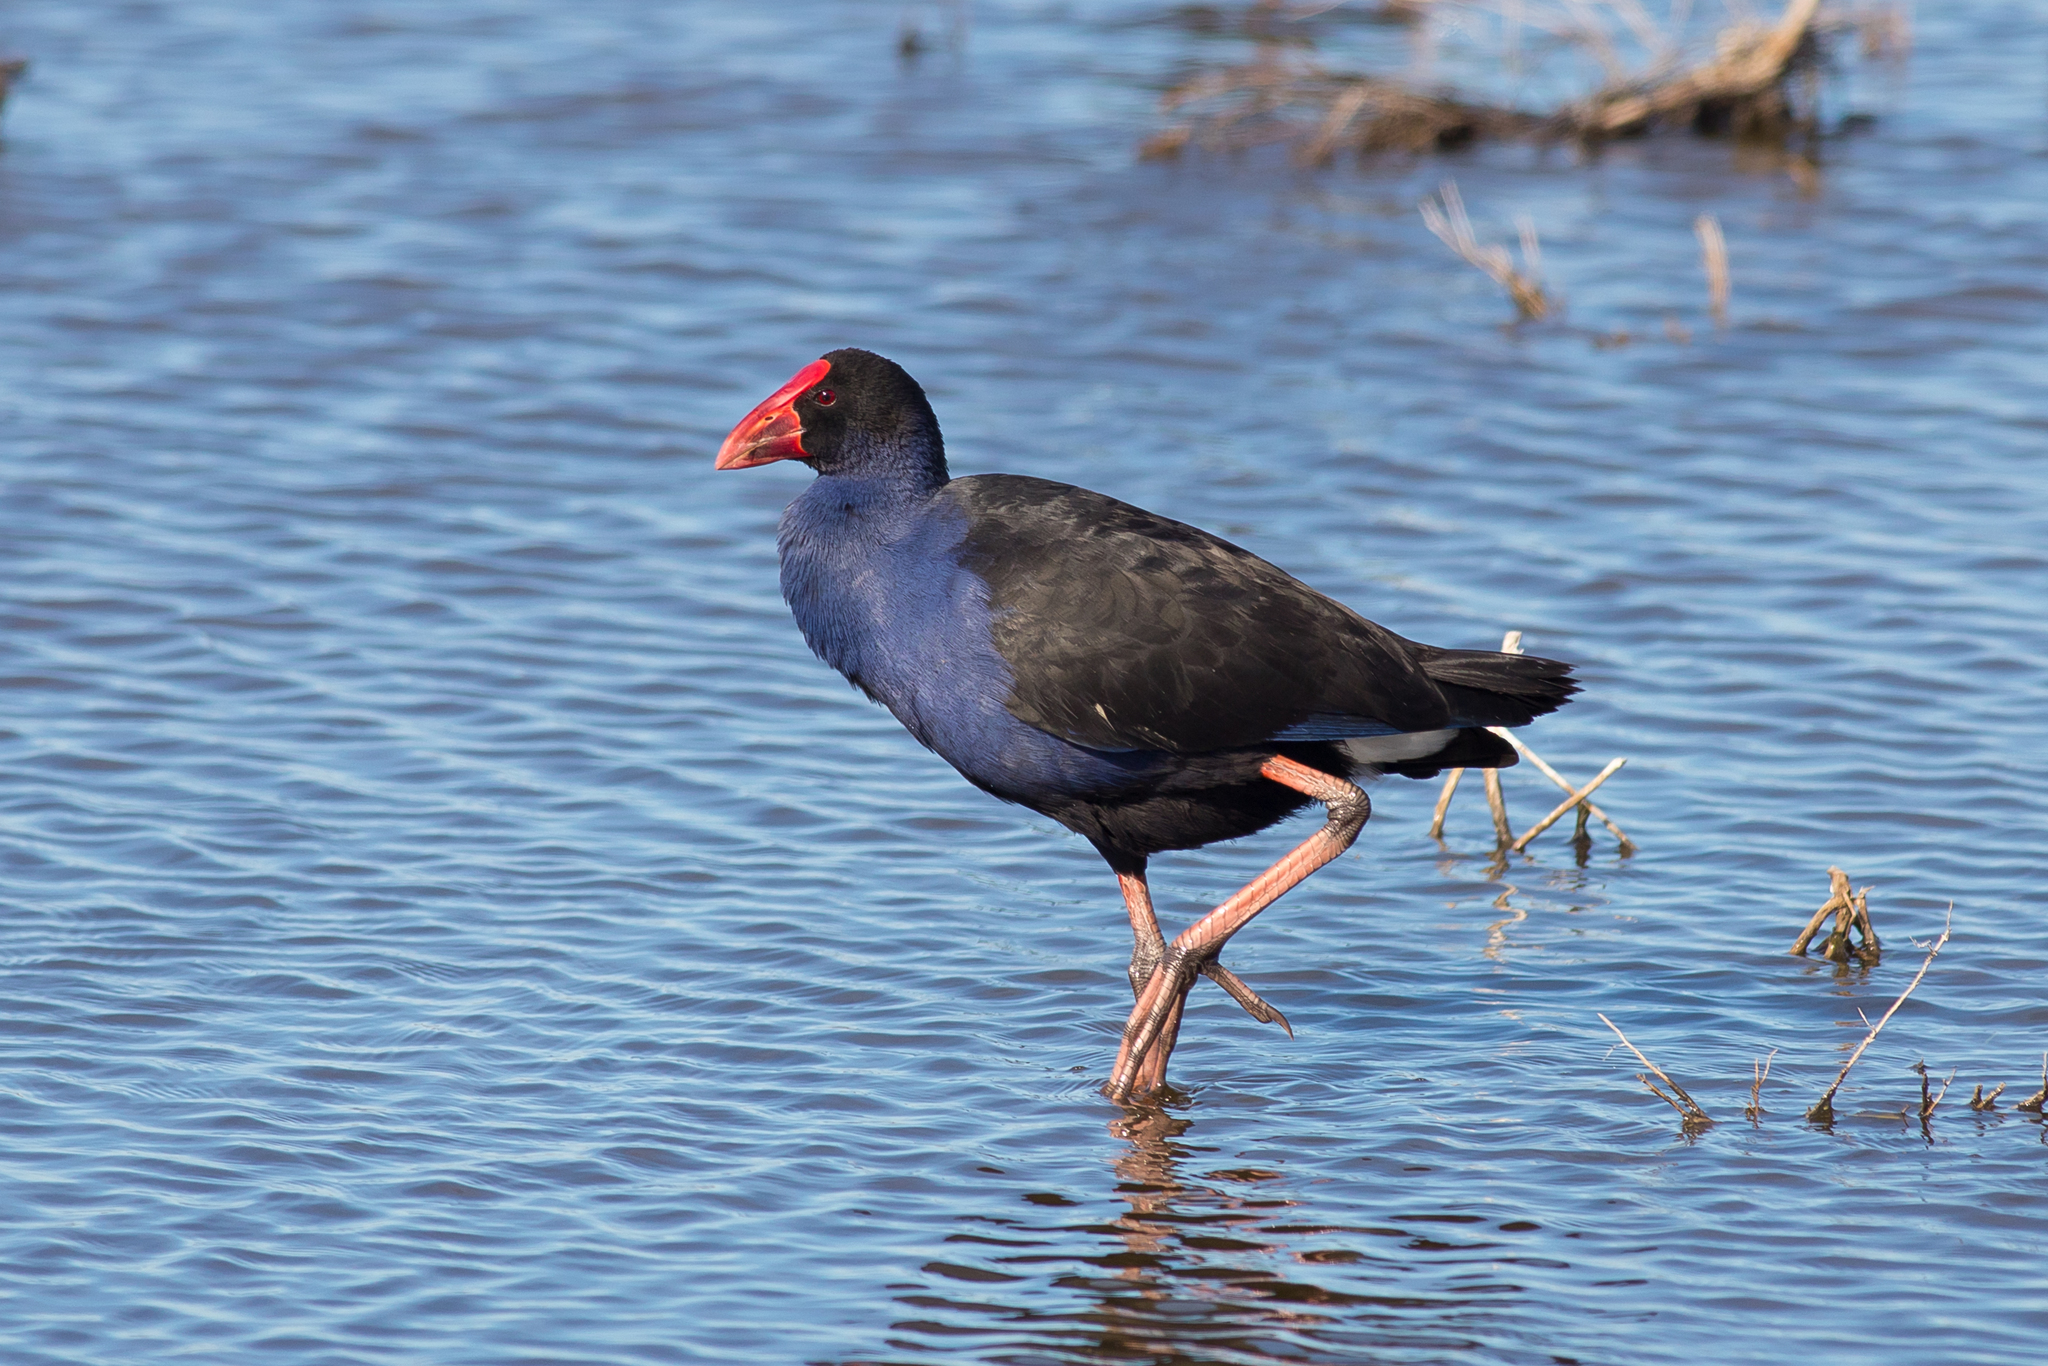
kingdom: Animalia
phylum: Chordata
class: Aves
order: Gruiformes
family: Rallidae
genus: Porphyrio
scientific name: Porphyrio melanotus
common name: Australasian swamphen
